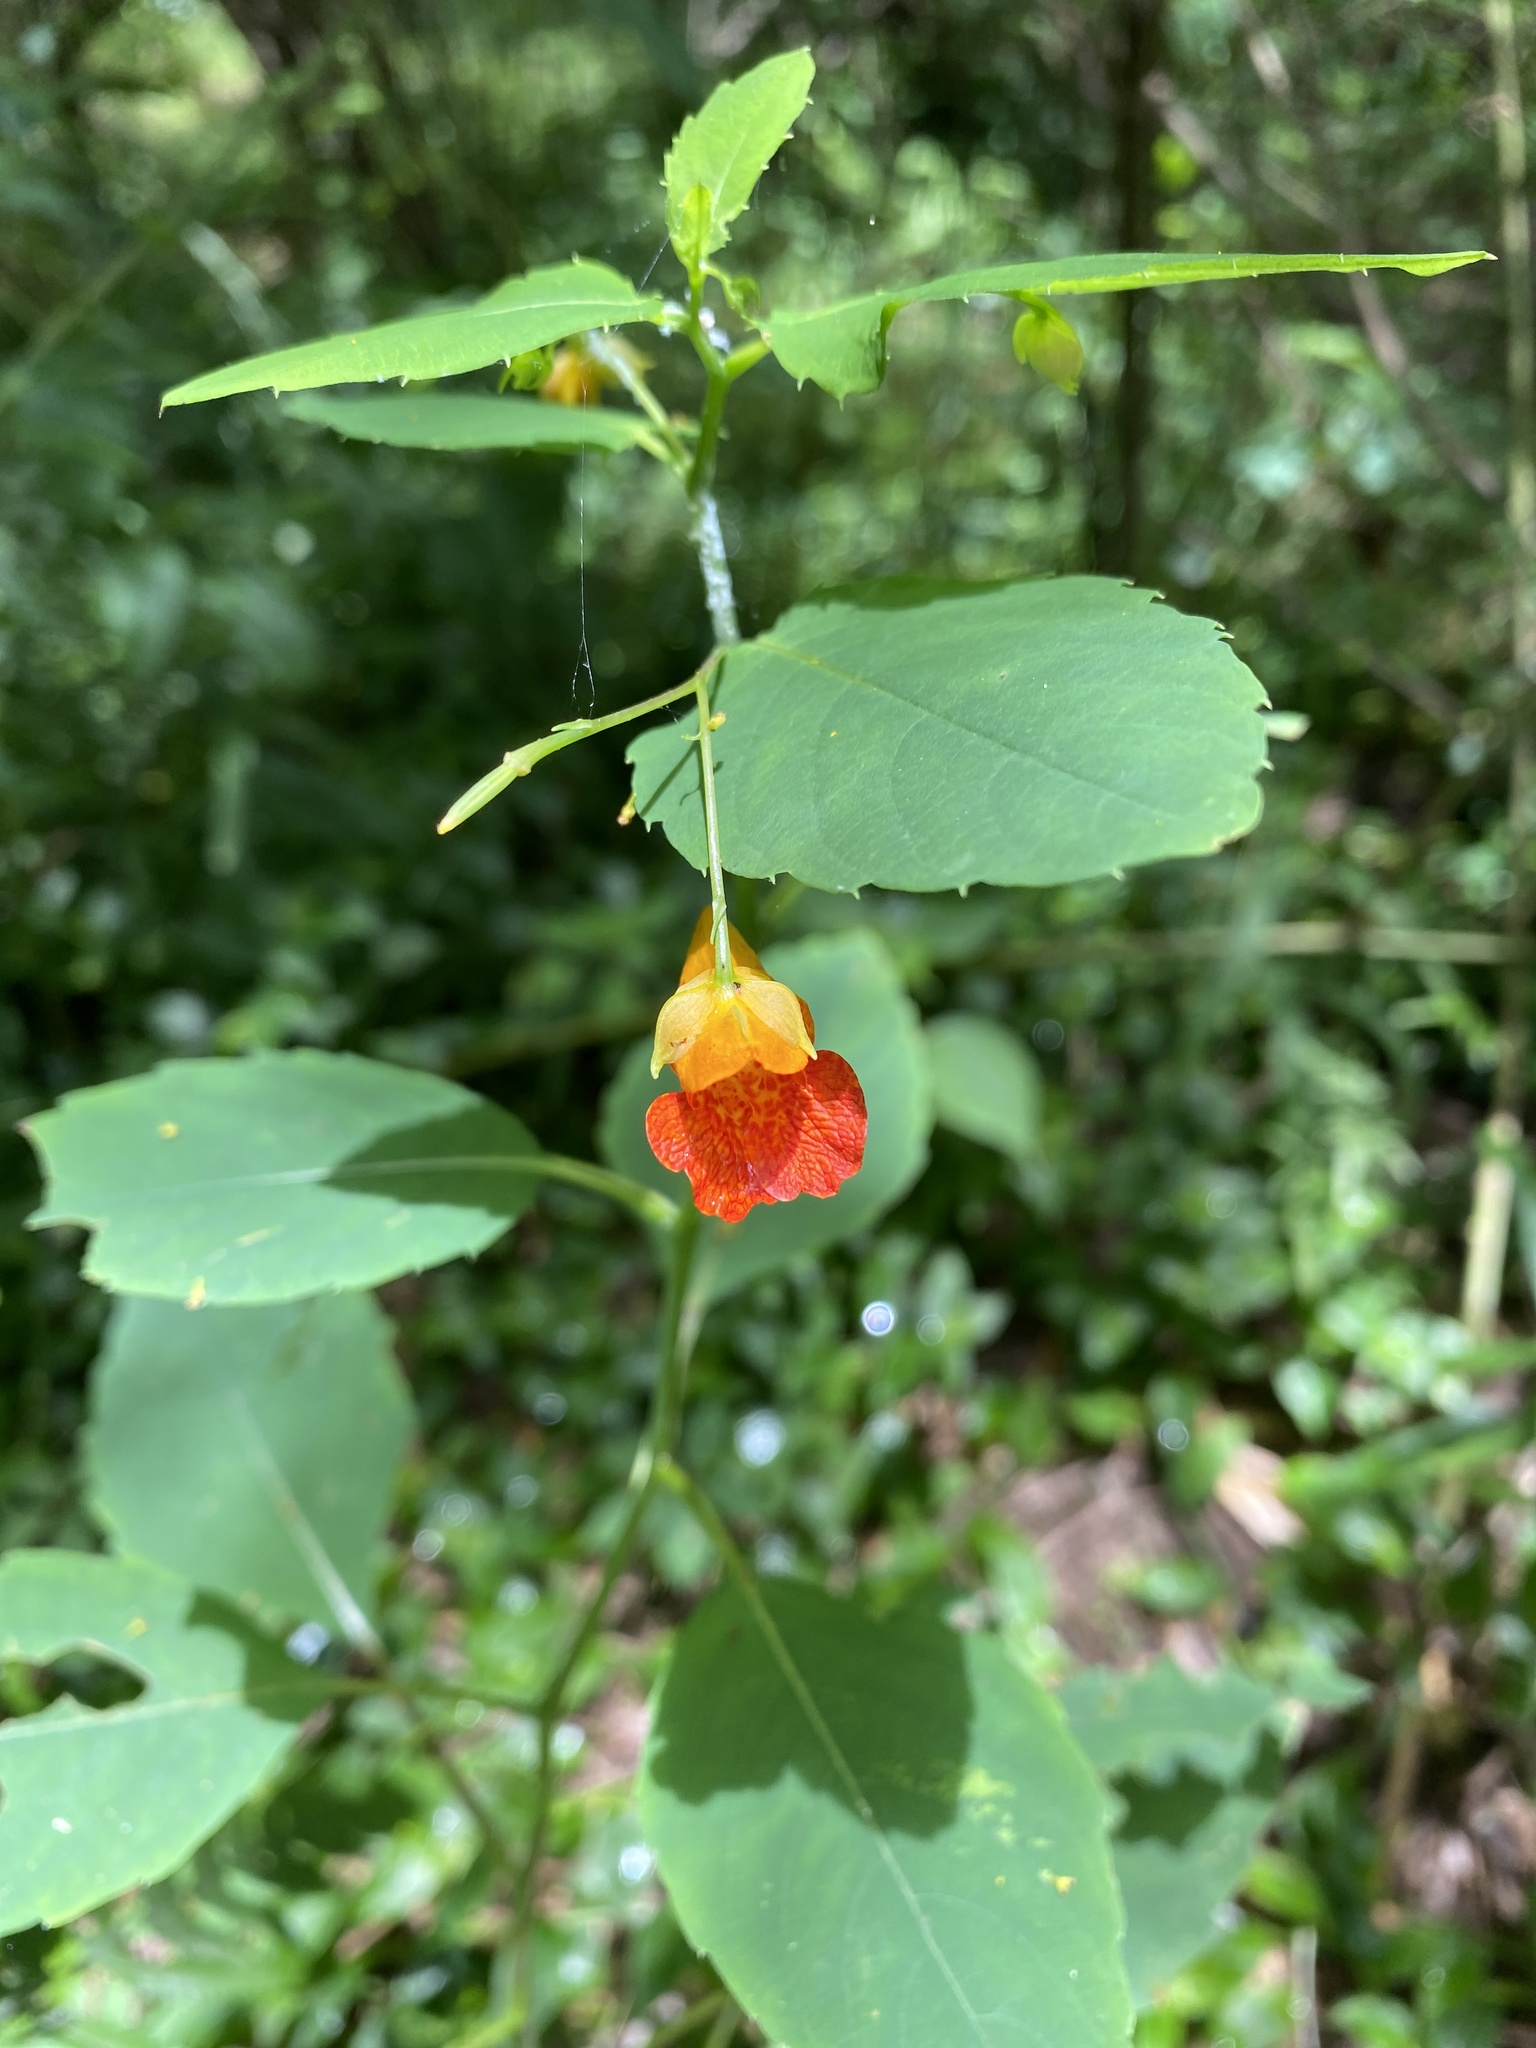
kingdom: Plantae
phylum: Tracheophyta
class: Magnoliopsida
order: Ericales
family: Balsaminaceae
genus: Impatiens
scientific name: Impatiens capensis
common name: Orange balsam
